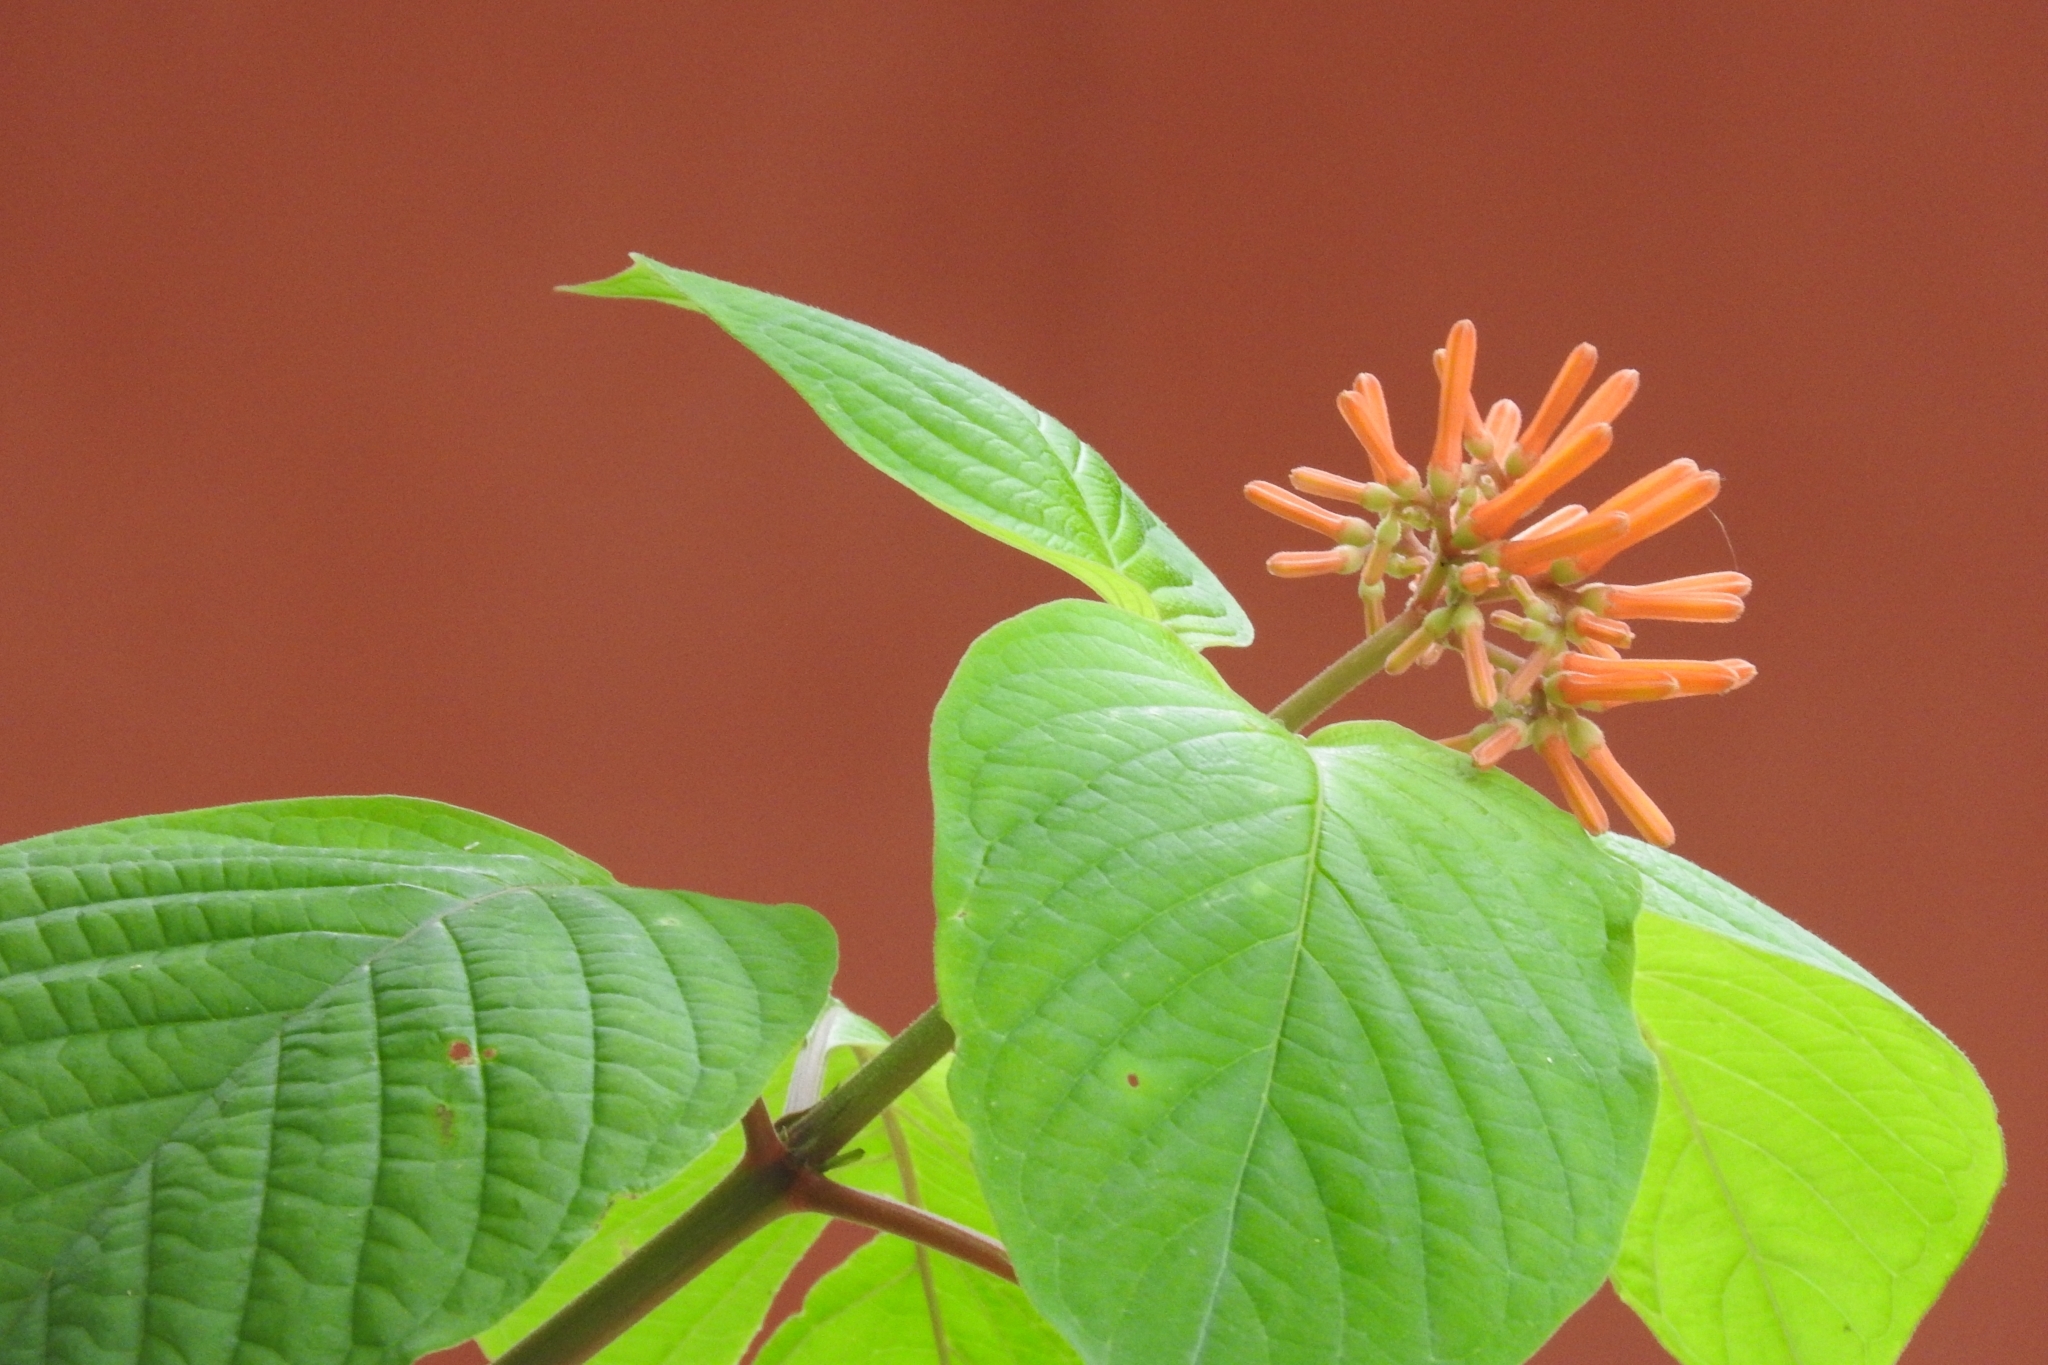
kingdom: Plantae
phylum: Tracheophyta
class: Magnoliopsida
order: Gentianales
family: Rubiaceae
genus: Hamelia
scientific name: Hamelia patens
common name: Redhead
